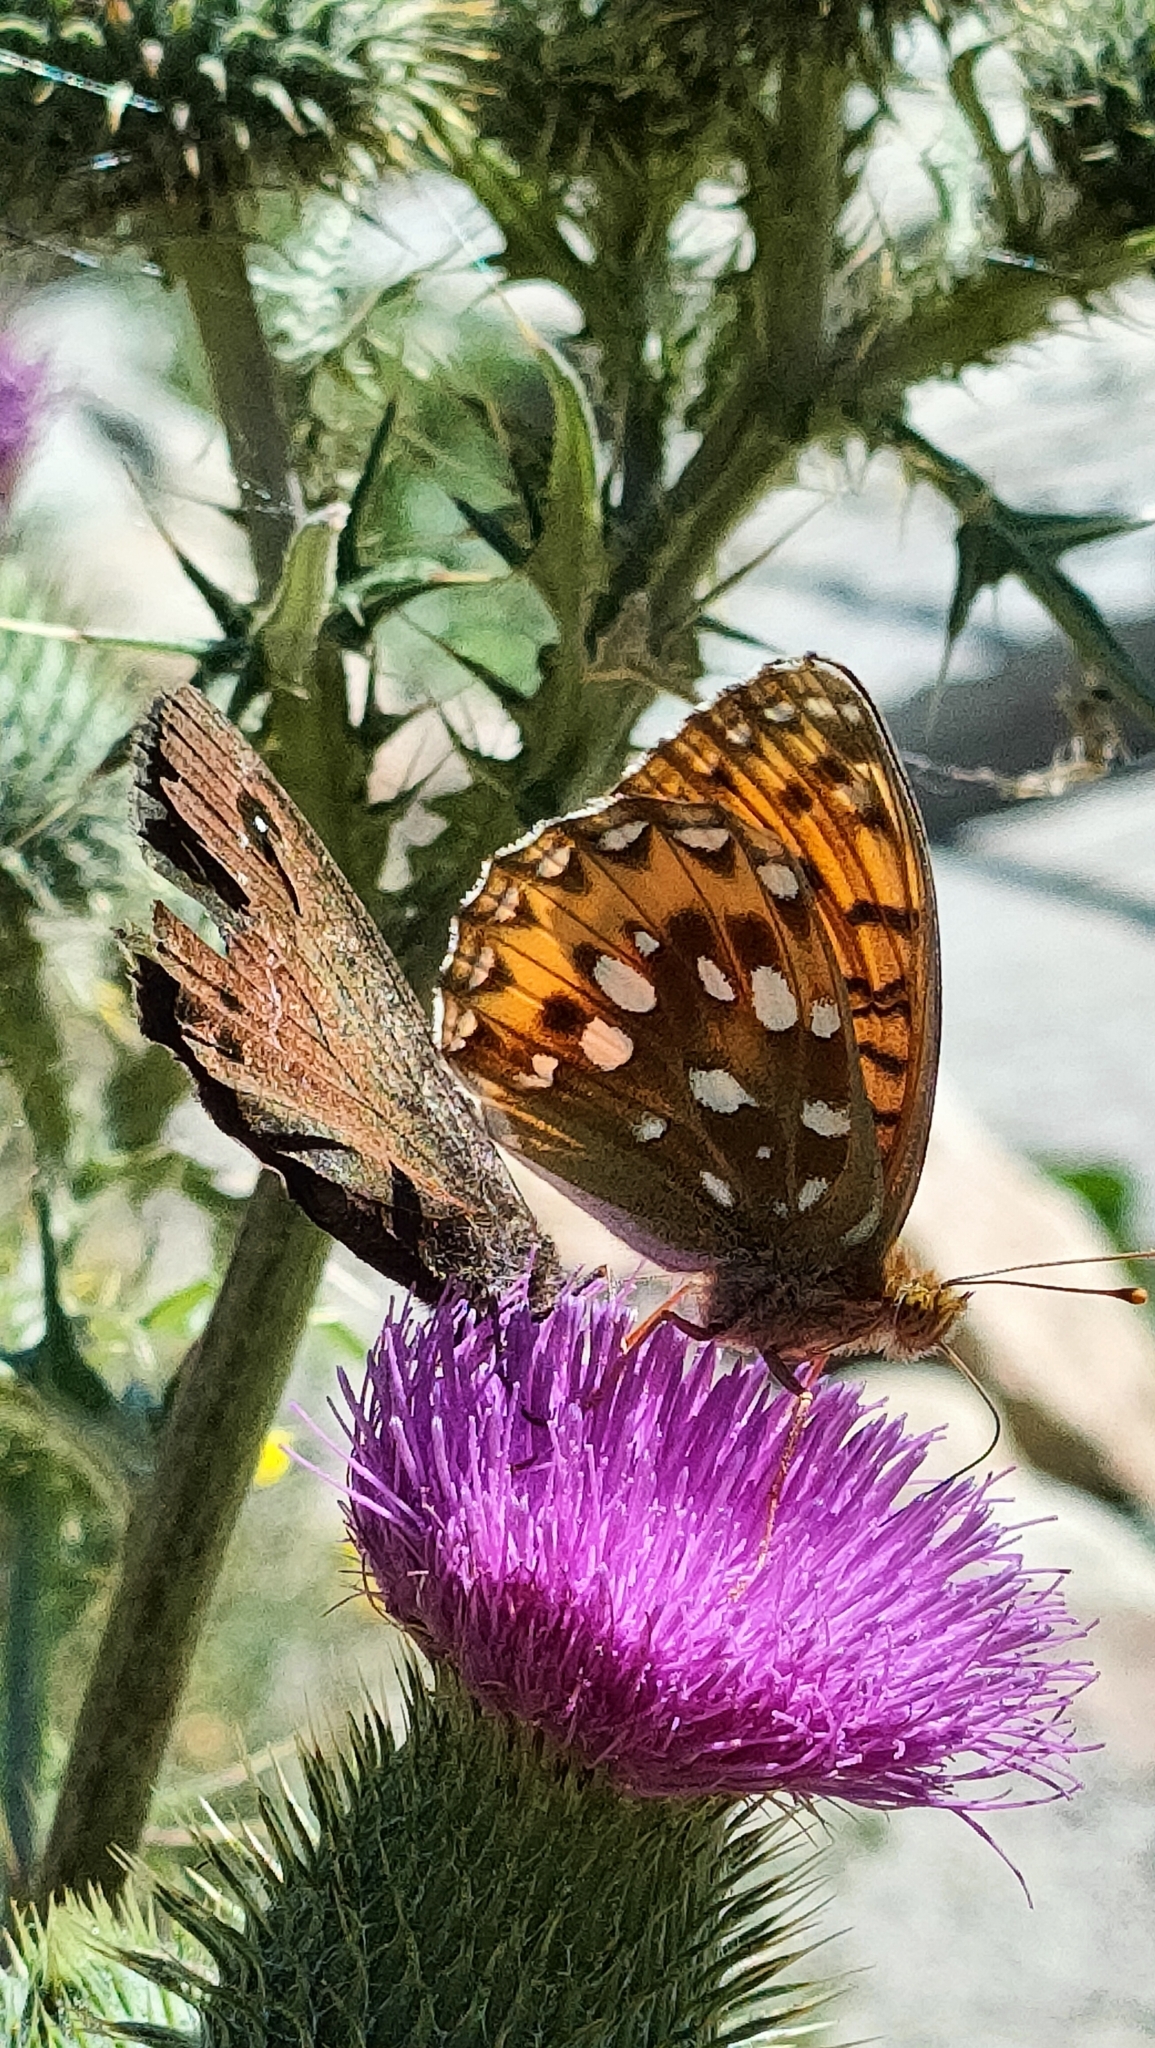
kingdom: Animalia
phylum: Arthropoda
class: Insecta
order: Lepidoptera
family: Nymphalidae
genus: Speyeria
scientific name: Speyeria aglaja
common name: Dark green fritillary
